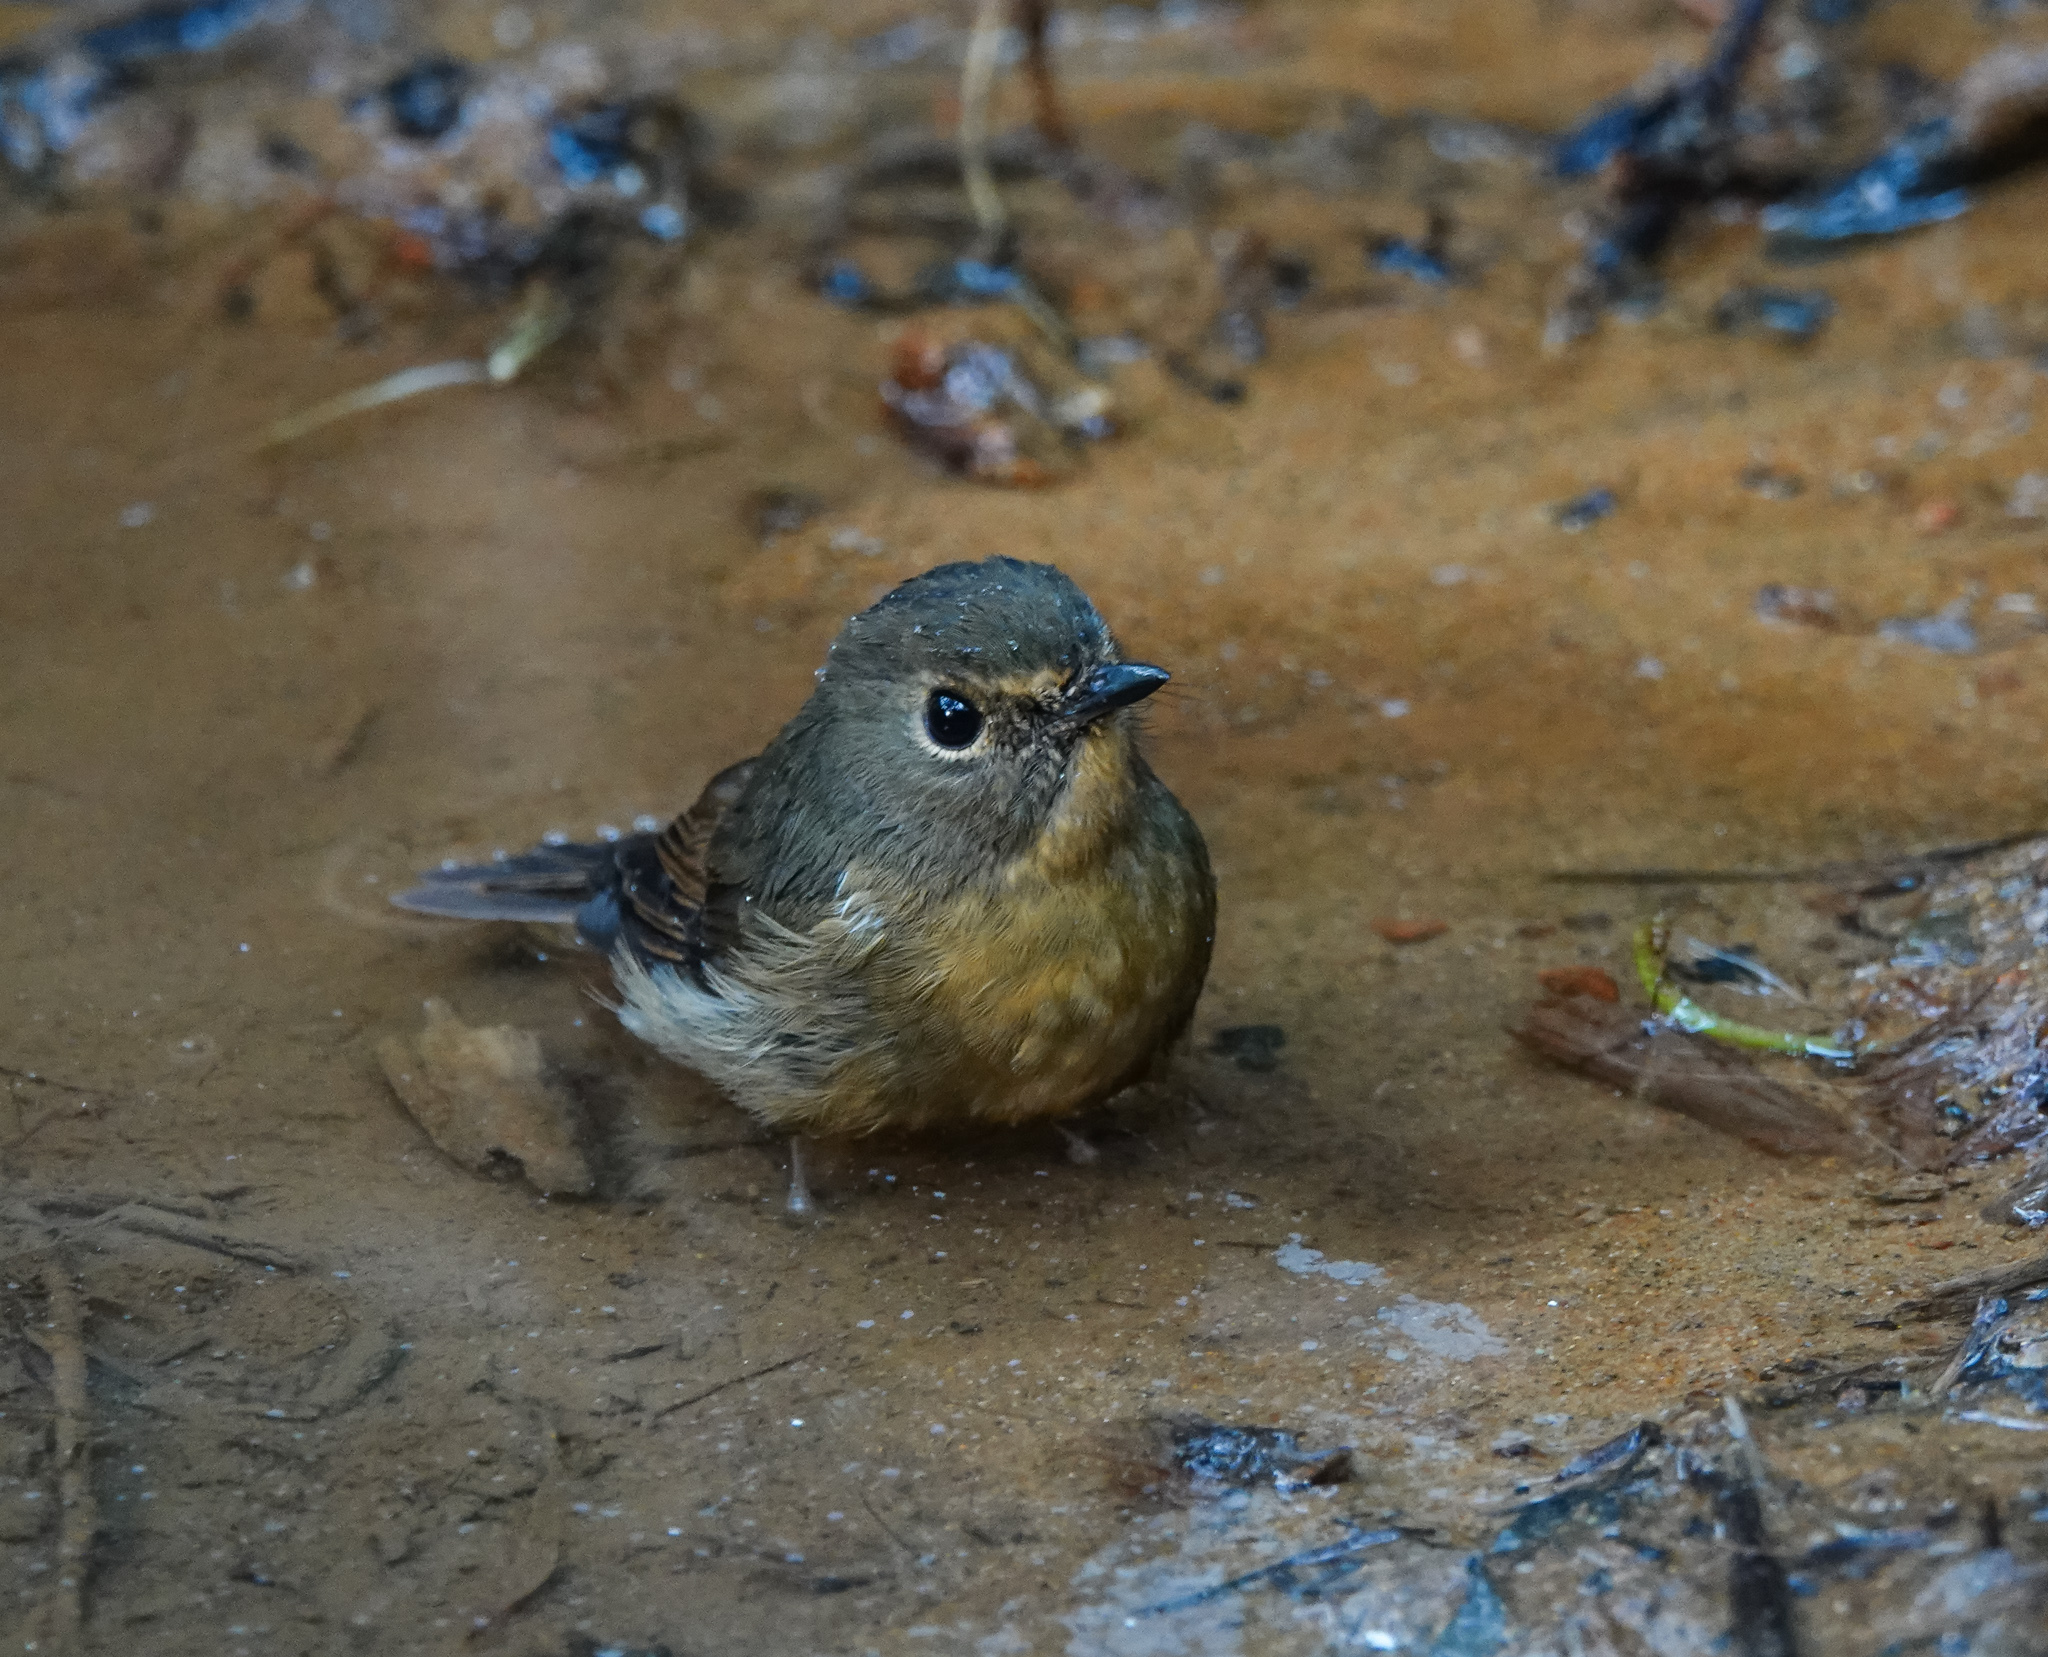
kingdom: Animalia
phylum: Chordata
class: Aves
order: Passeriformes
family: Muscicapidae
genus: Ficedula
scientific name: Ficedula hyperythra
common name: Snowy-browed flycatcher
